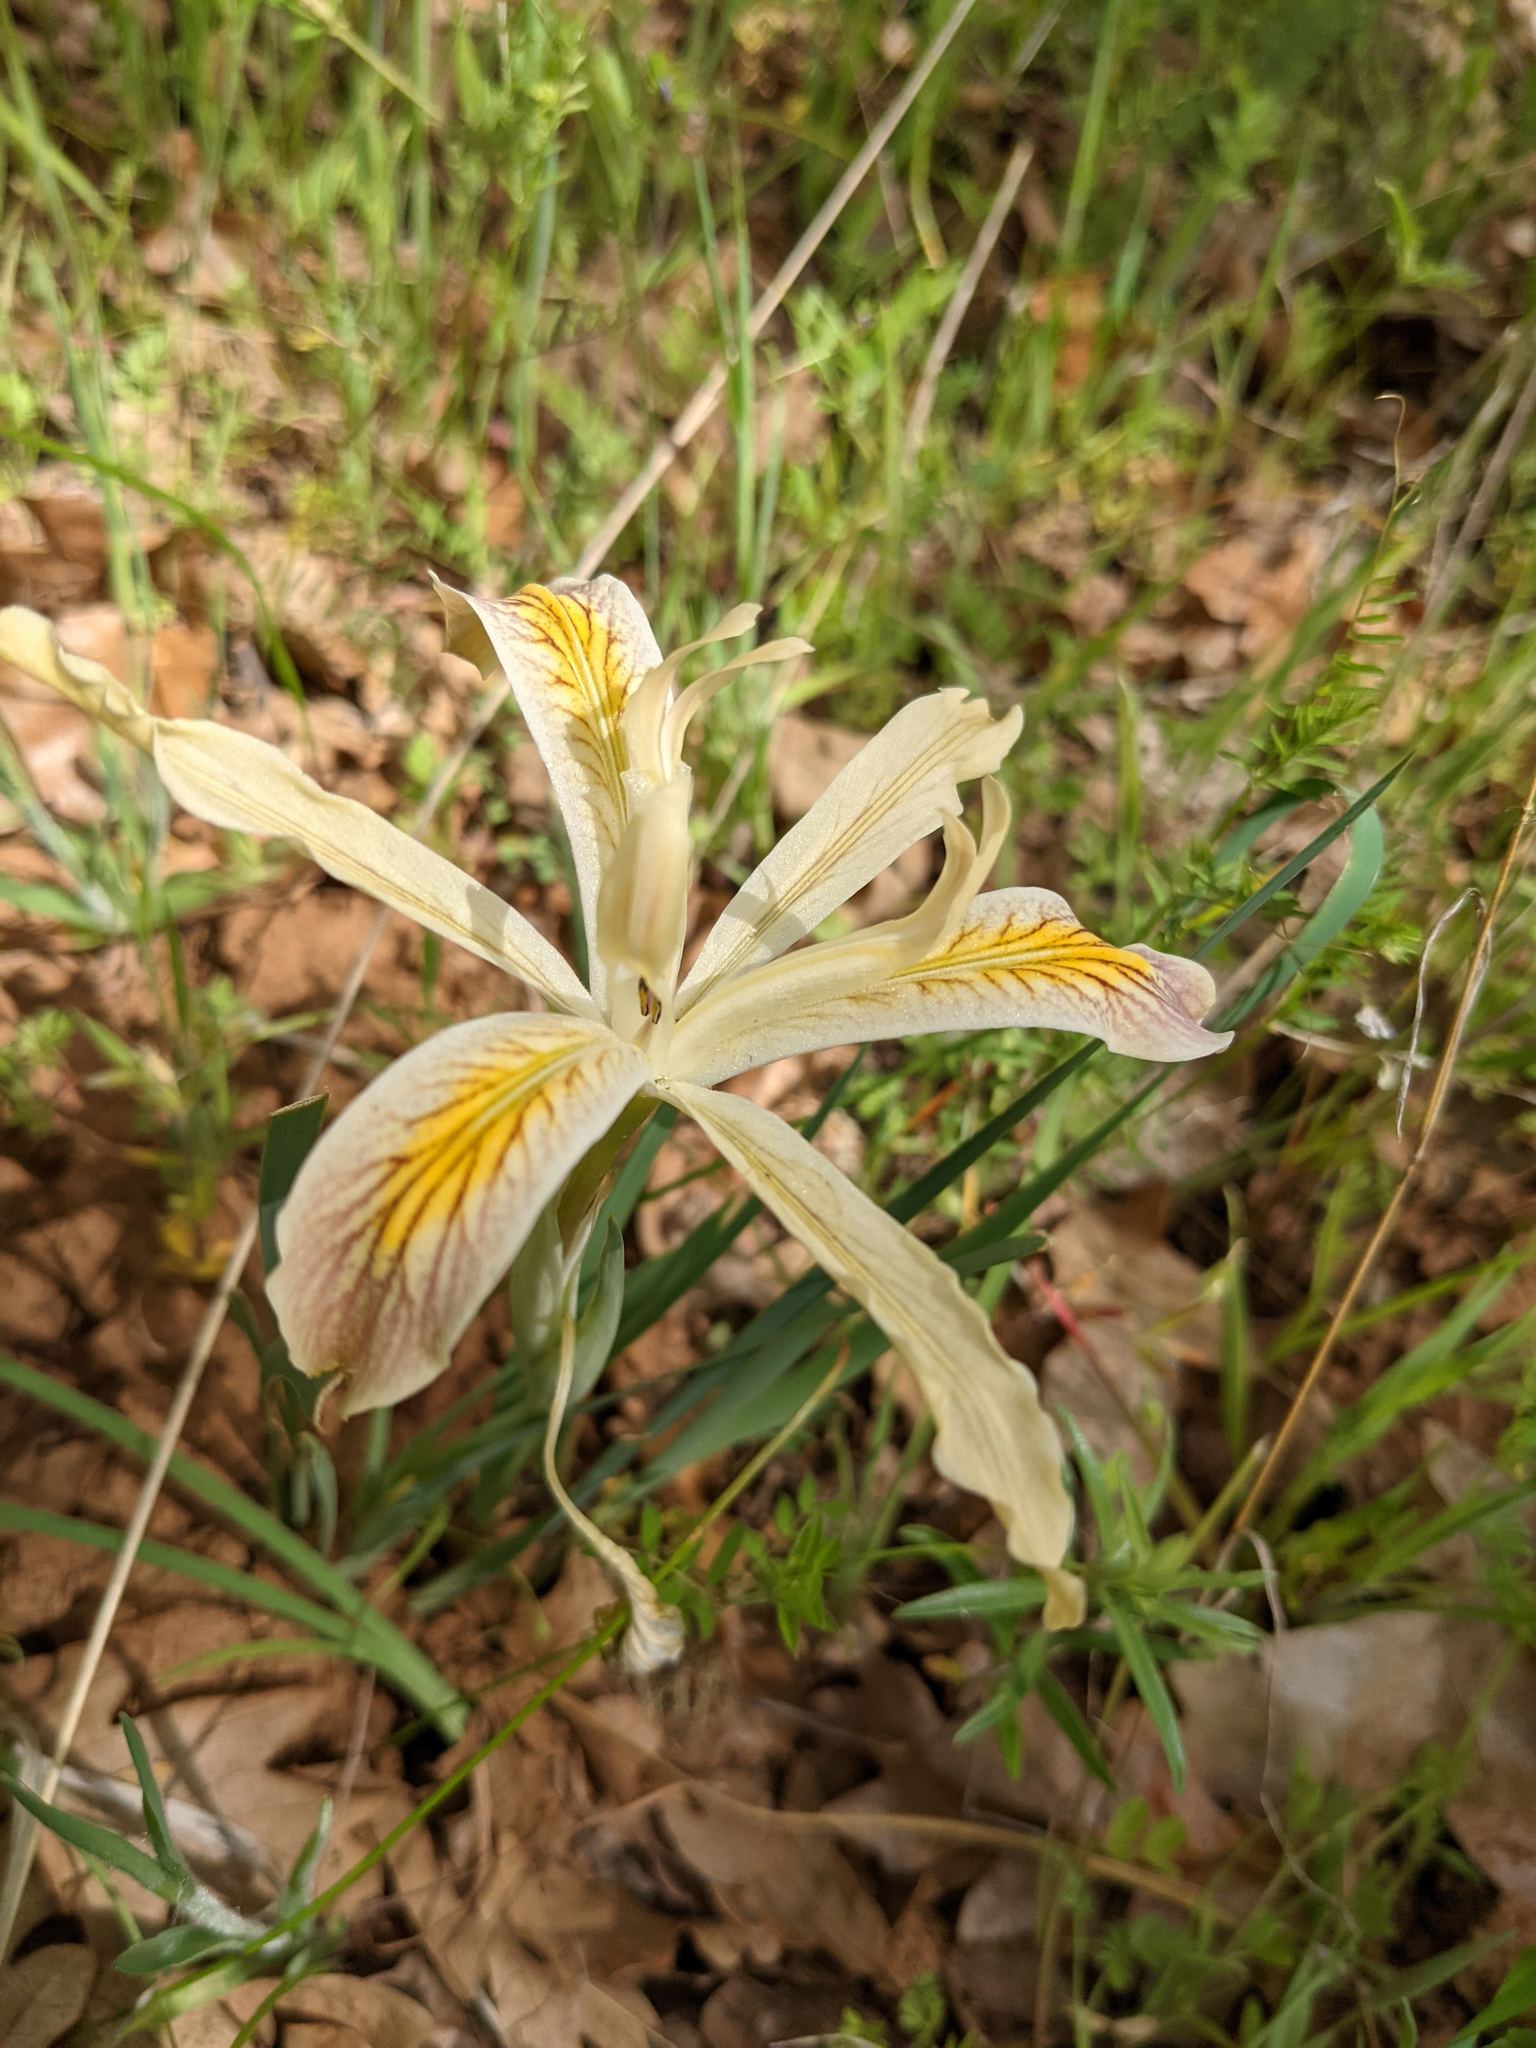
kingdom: Plantae
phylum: Tracheophyta
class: Liliopsida
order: Asparagales
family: Iridaceae
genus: Iris
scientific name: Iris chrysophylla
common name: Yellow-leaf iris
